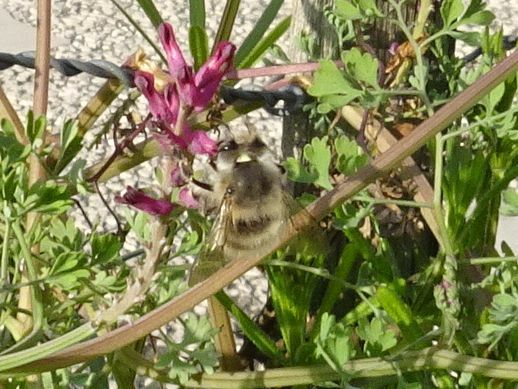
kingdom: Animalia
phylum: Arthropoda
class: Insecta
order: Hymenoptera
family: Apidae
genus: Anthophora
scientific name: Anthophora plumipes
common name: Hairy-footed flower bee
